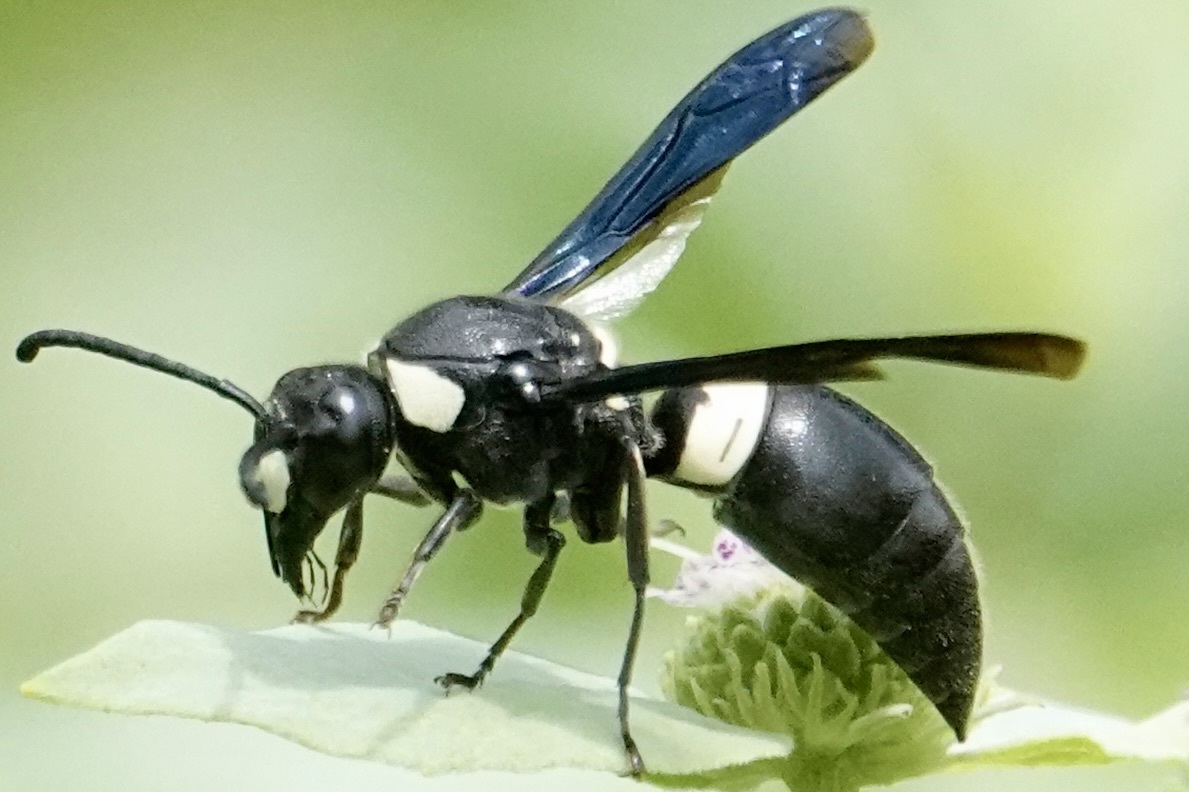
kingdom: Animalia
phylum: Arthropoda
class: Insecta
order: Hymenoptera
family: Eumenidae
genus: Monobia
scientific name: Monobia quadridens
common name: Four-toothed mason wasp
